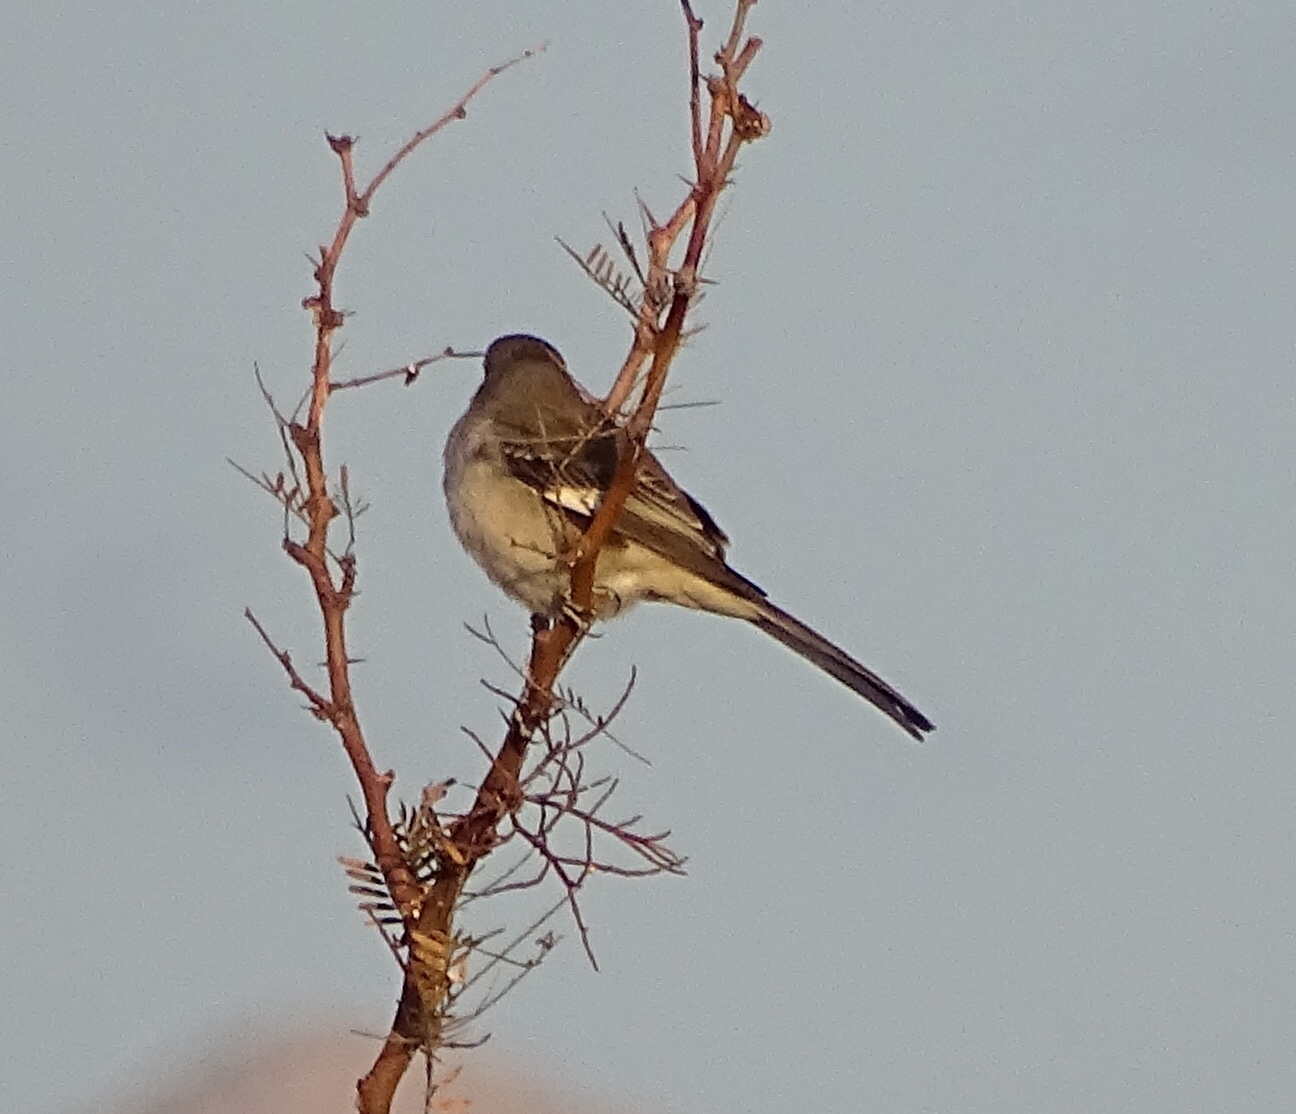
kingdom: Animalia
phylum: Chordata
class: Aves
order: Passeriformes
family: Mimidae
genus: Mimus
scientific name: Mimus polyglottos
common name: Northern mockingbird
